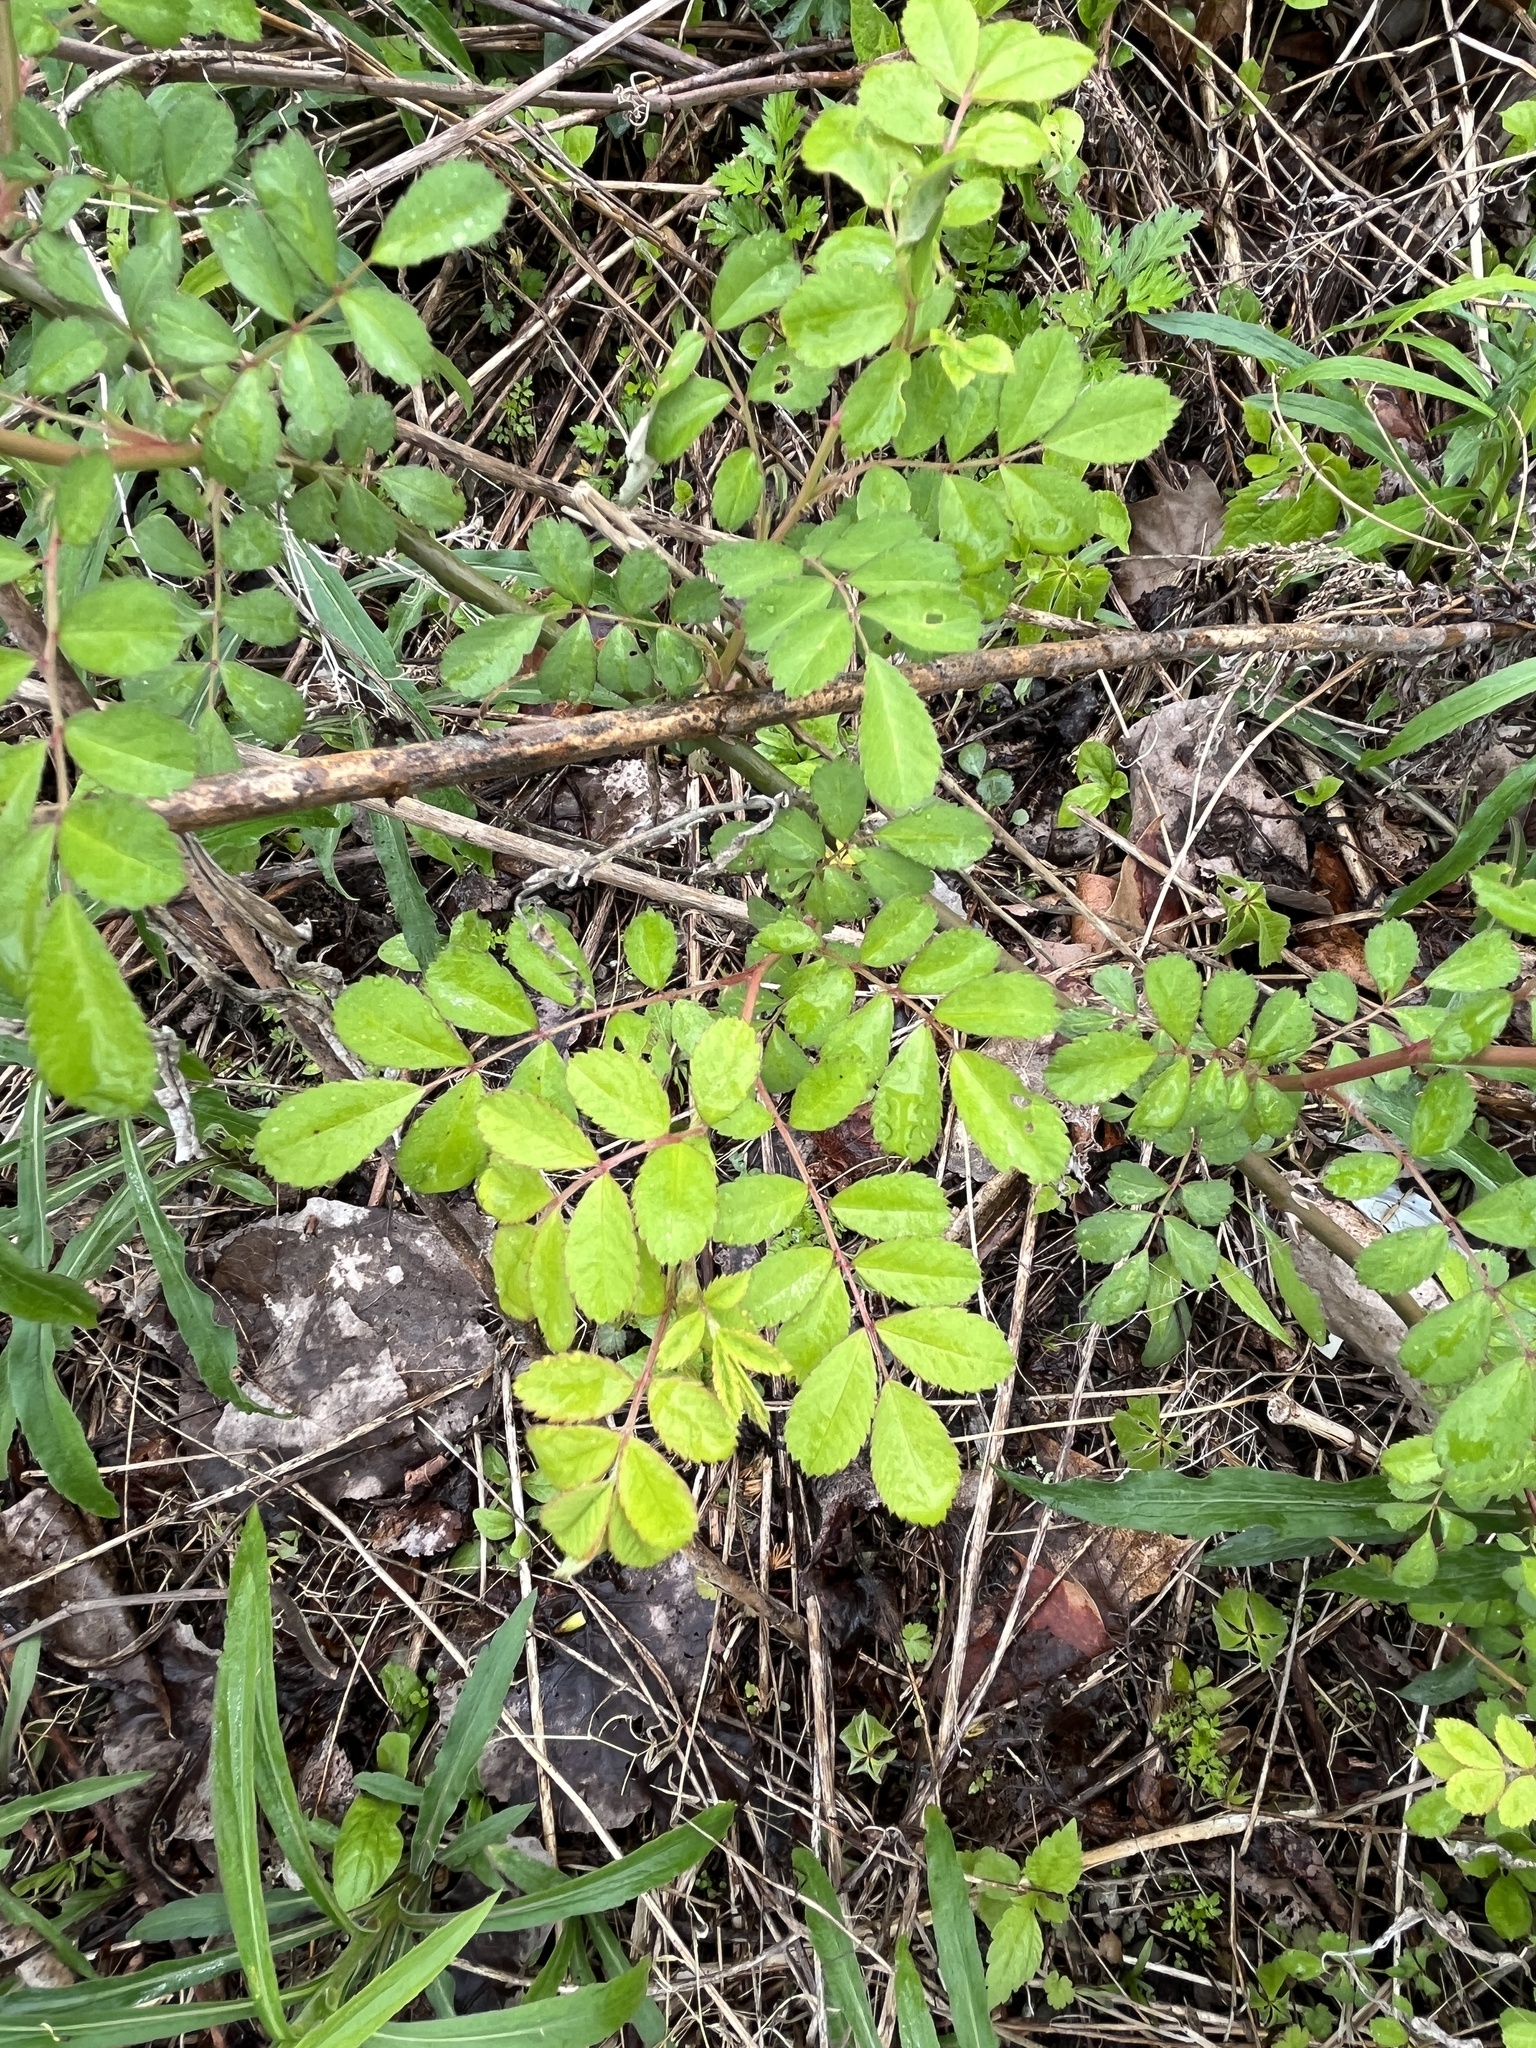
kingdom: Plantae
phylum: Tracheophyta
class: Magnoliopsida
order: Rosales
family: Rosaceae
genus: Rosa
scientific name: Rosa multiflora
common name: Multiflora rose
